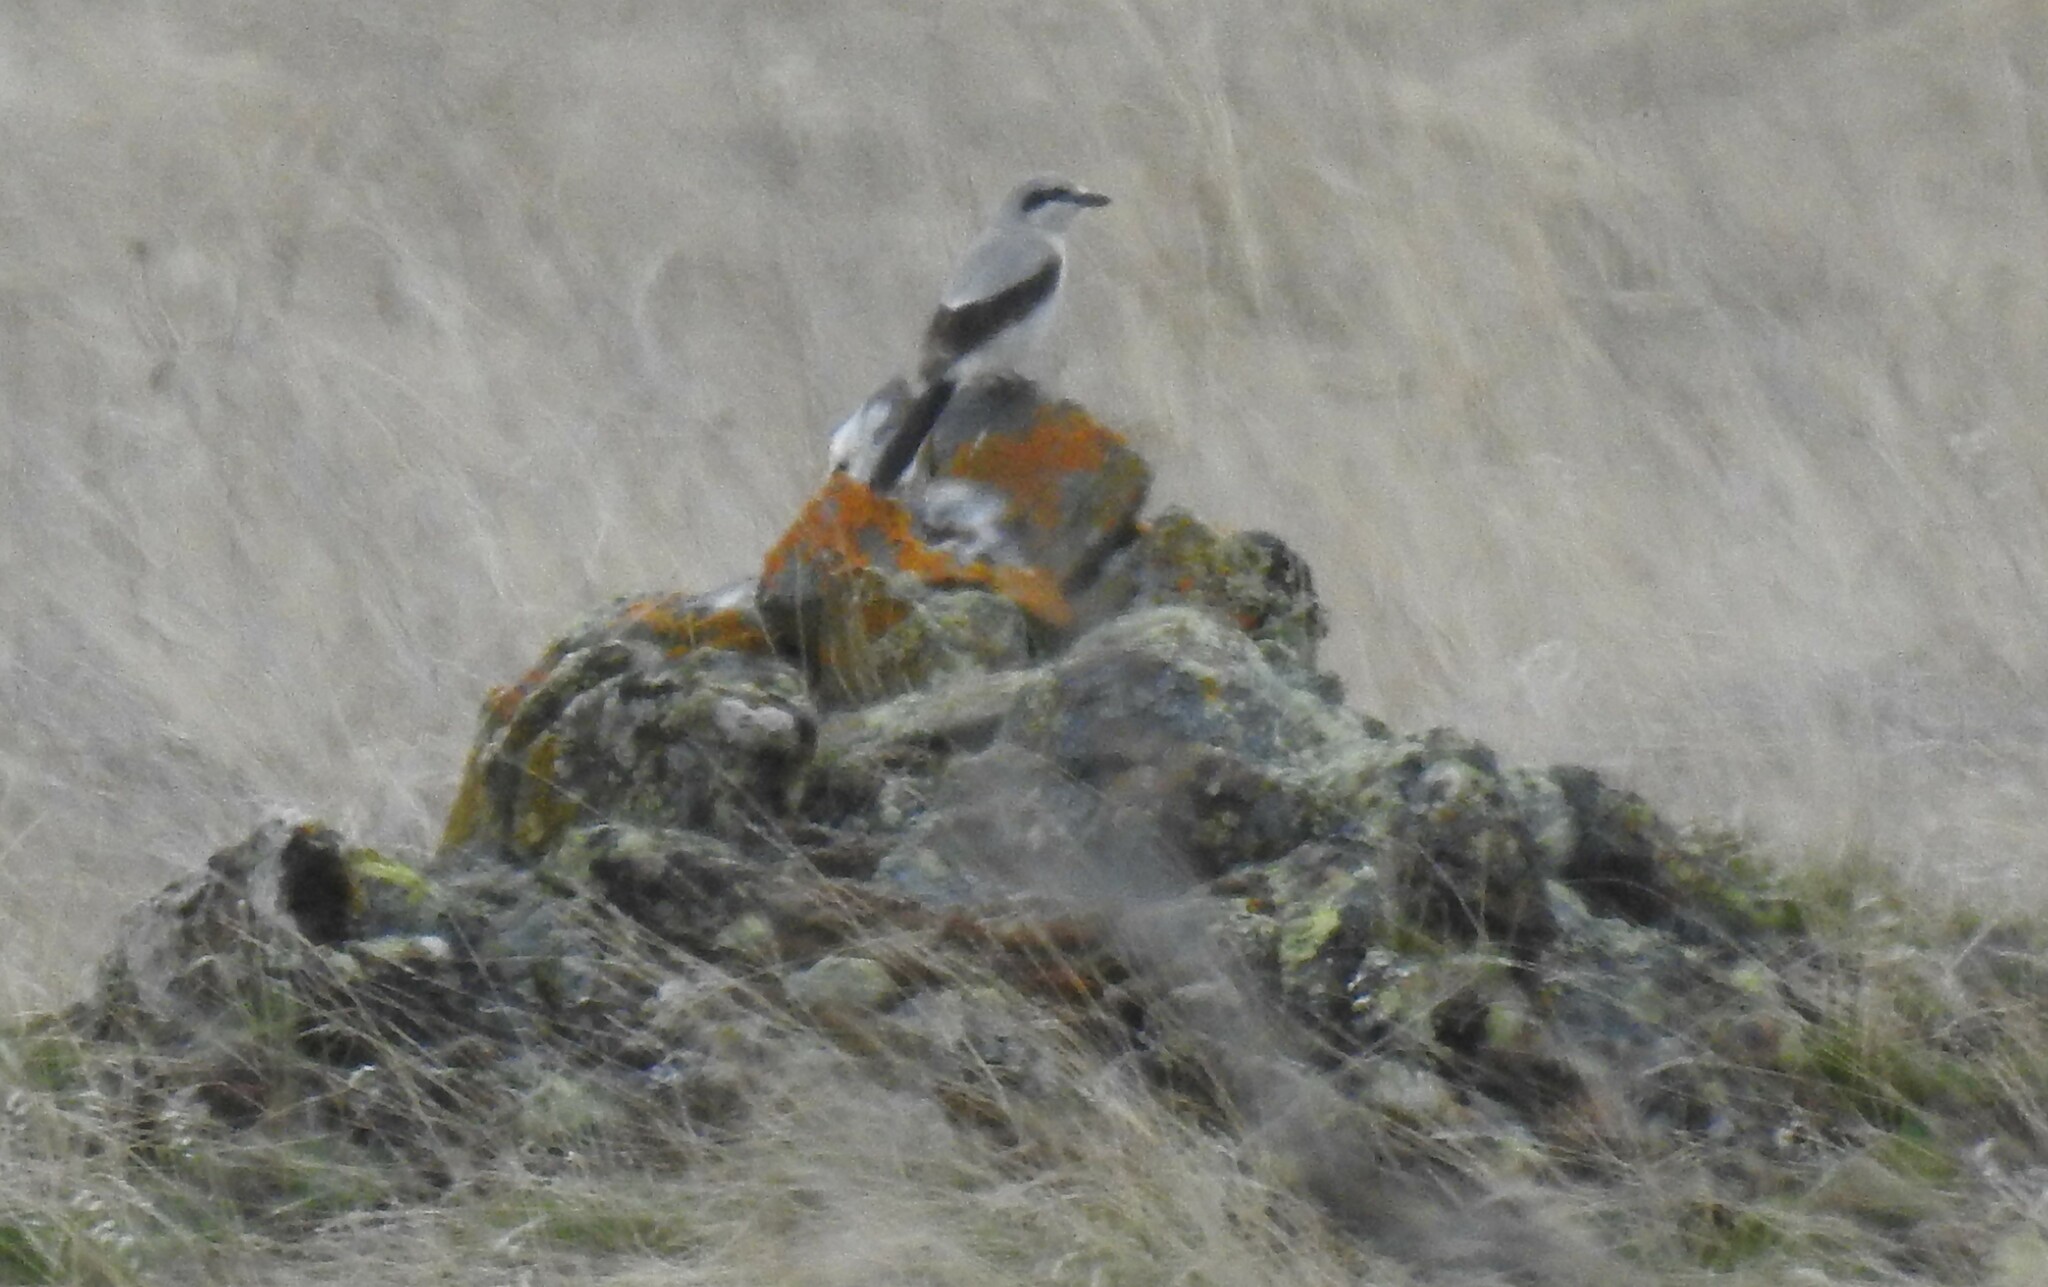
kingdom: Animalia
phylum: Chordata
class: Aves
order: Passeriformes
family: Laniidae
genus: Lanius
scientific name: Lanius borealis
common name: Northern shrike
